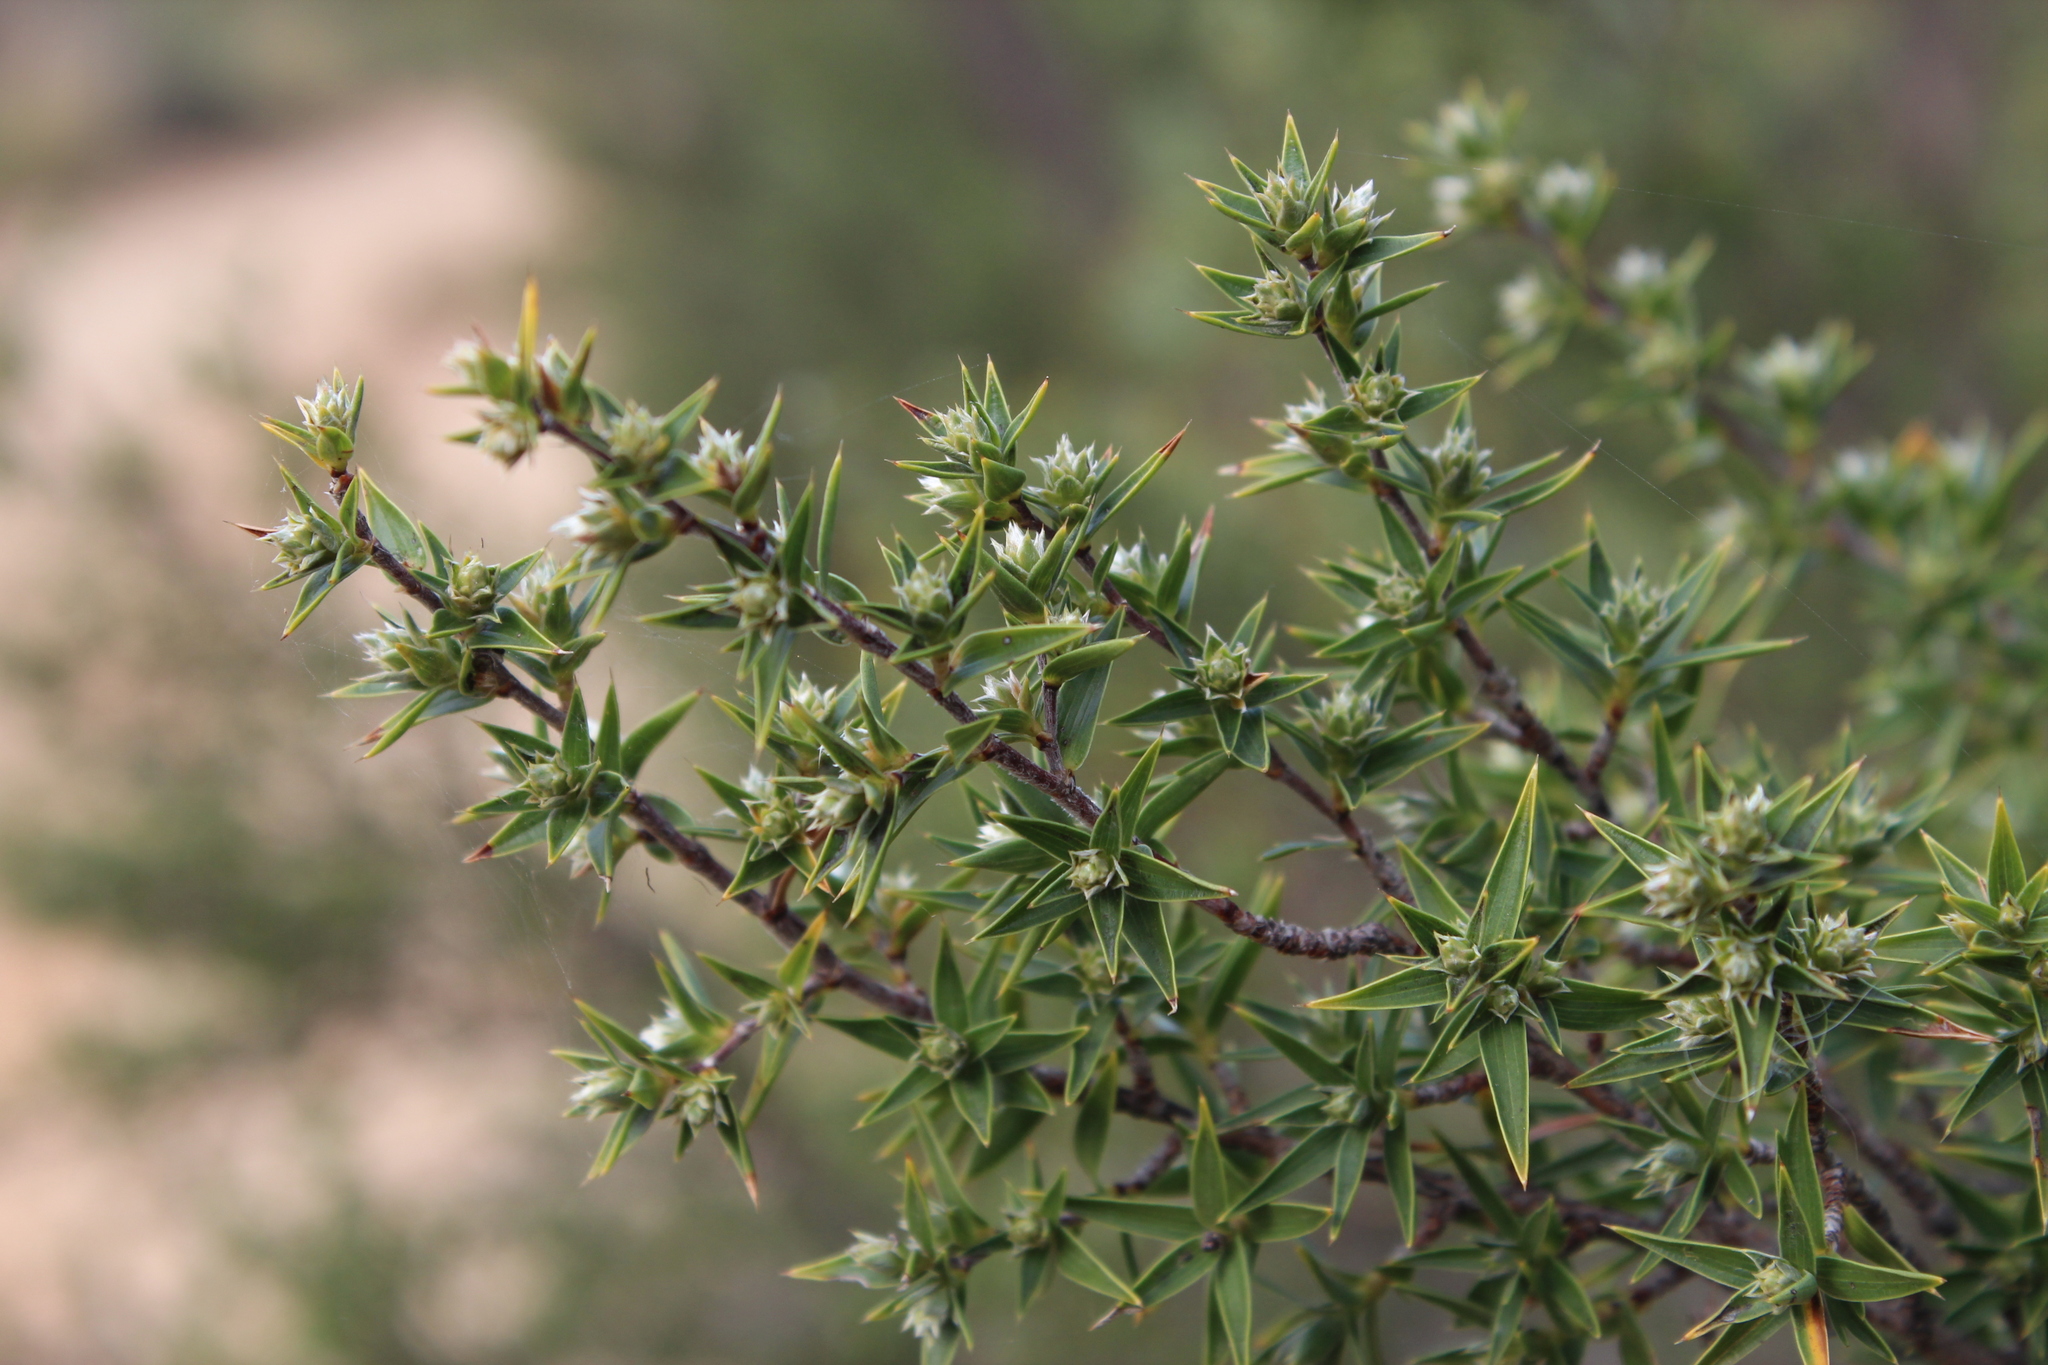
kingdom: Plantae
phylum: Tracheophyta
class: Magnoliopsida
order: Rosales
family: Rosaceae
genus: Cliffortia
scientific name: Cliffortia ruscifolia
